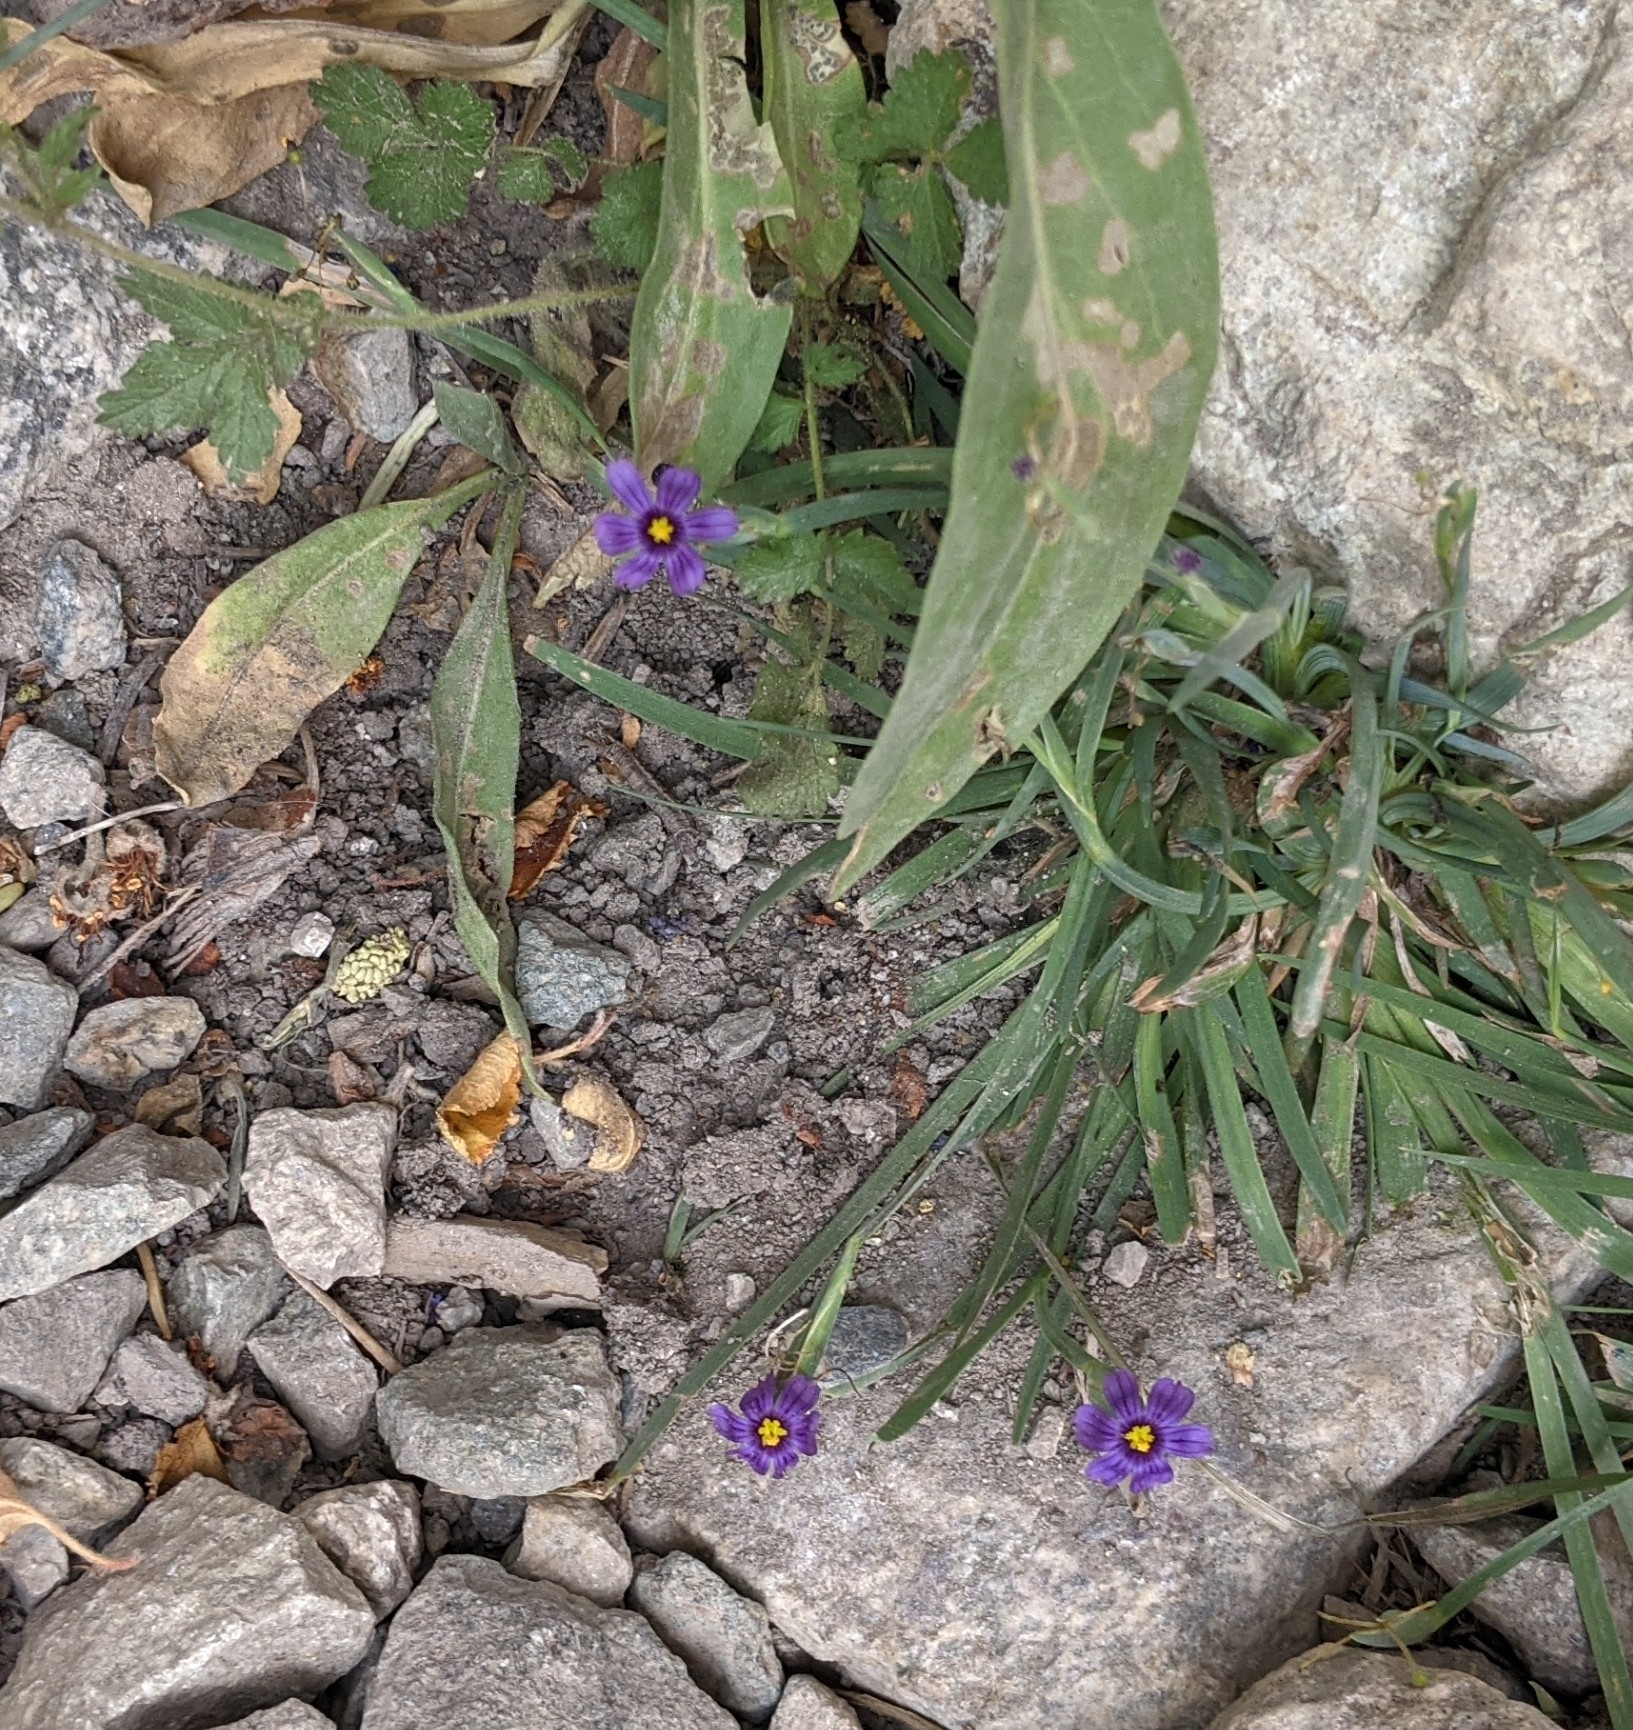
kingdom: Plantae
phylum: Tracheophyta
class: Liliopsida
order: Asparagales
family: Iridaceae
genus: Sisyrinchium
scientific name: Sisyrinchium bellum
